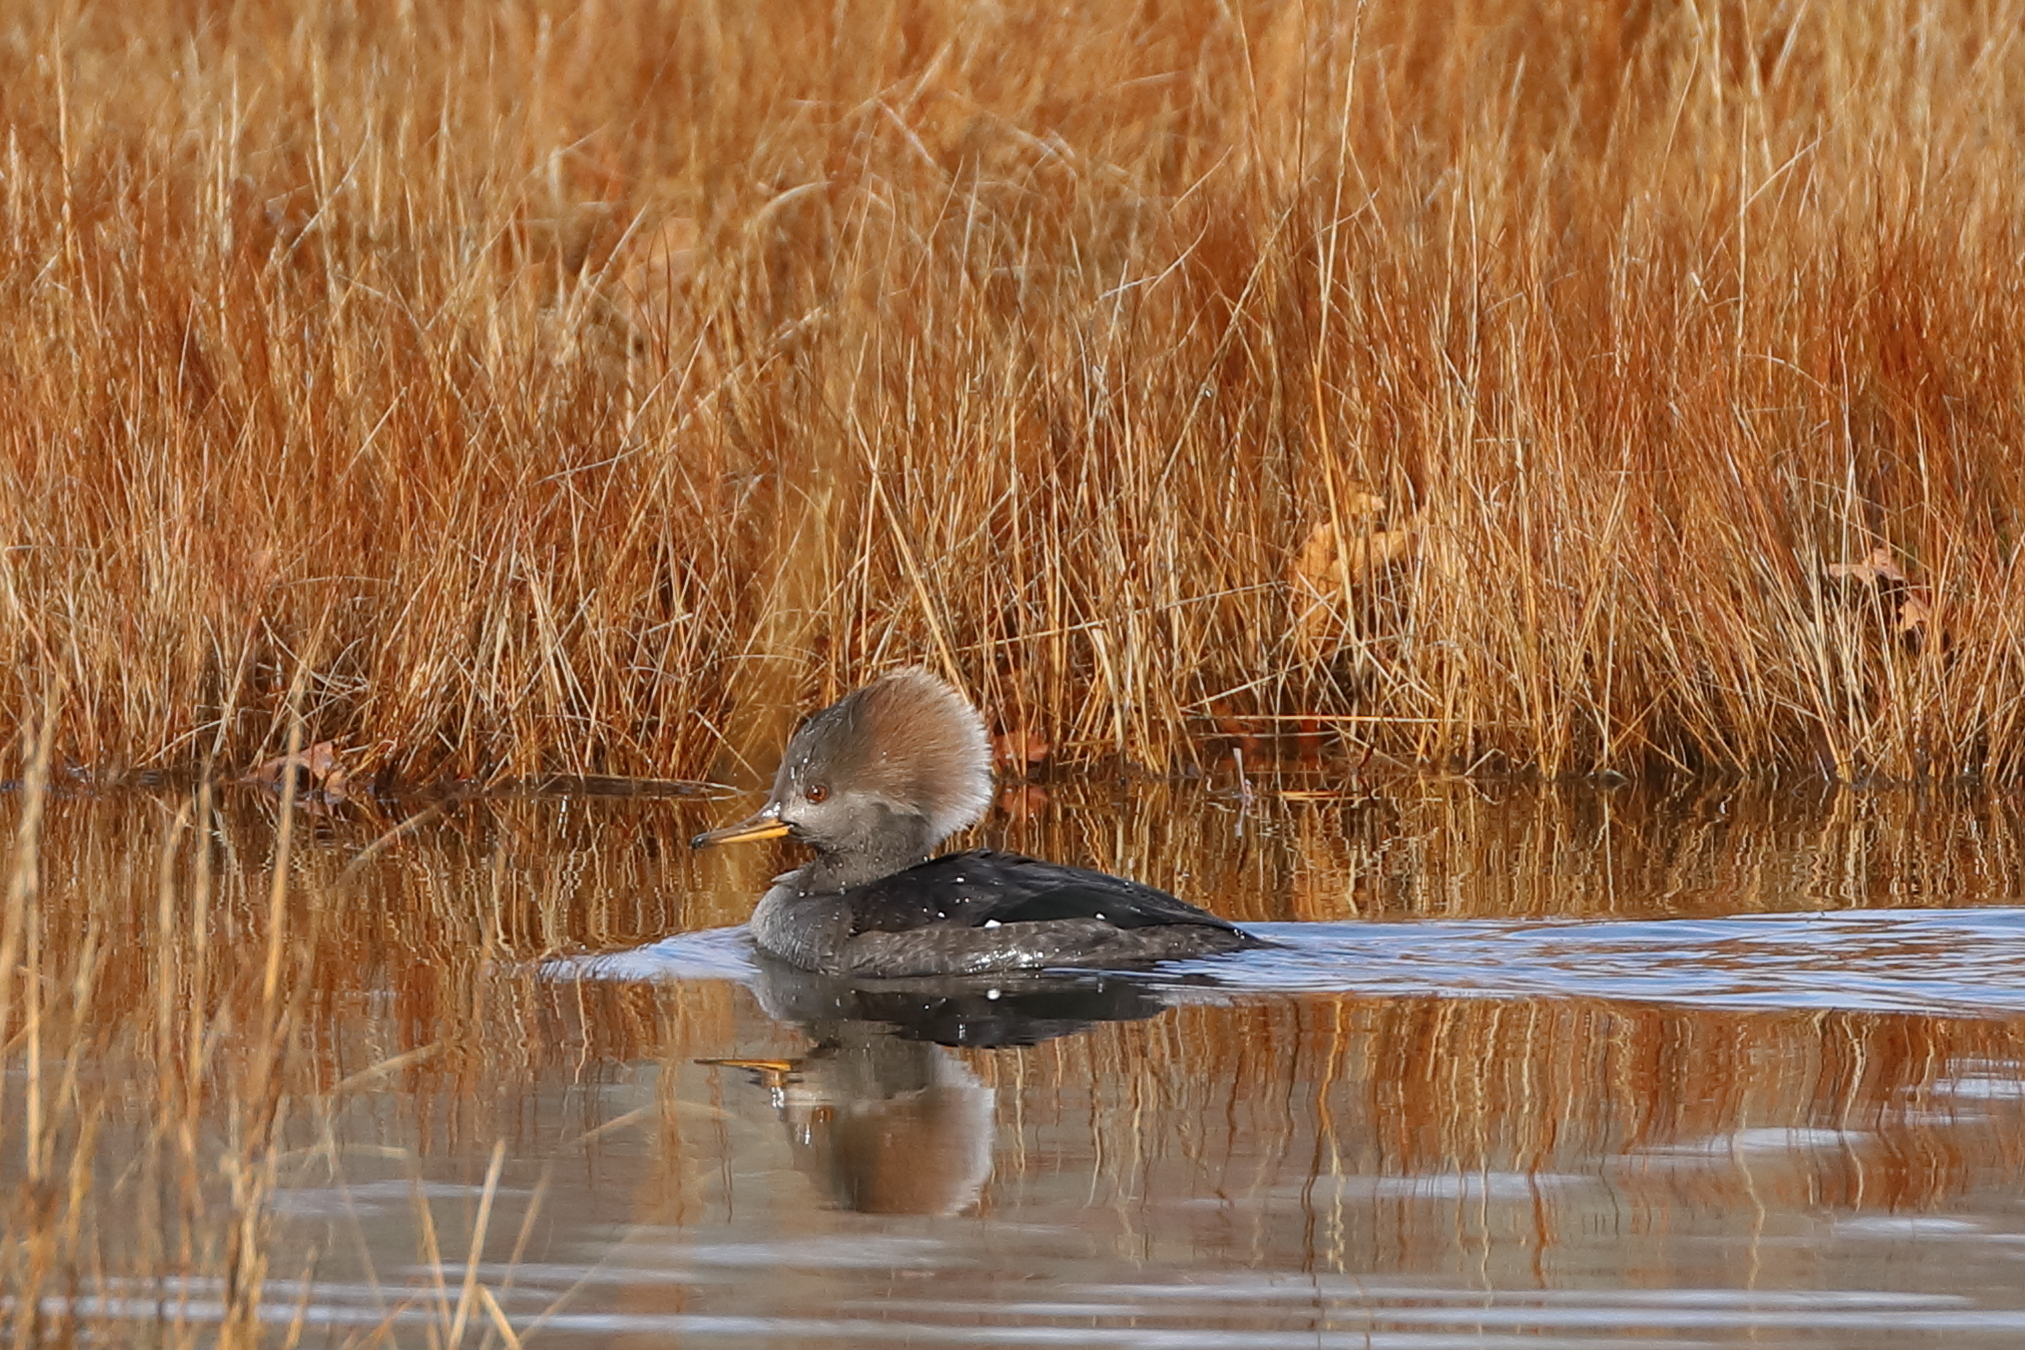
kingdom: Animalia
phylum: Chordata
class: Aves
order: Anseriformes
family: Anatidae
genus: Lophodytes
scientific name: Lophodytes cucullatus
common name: Hooded merganser
